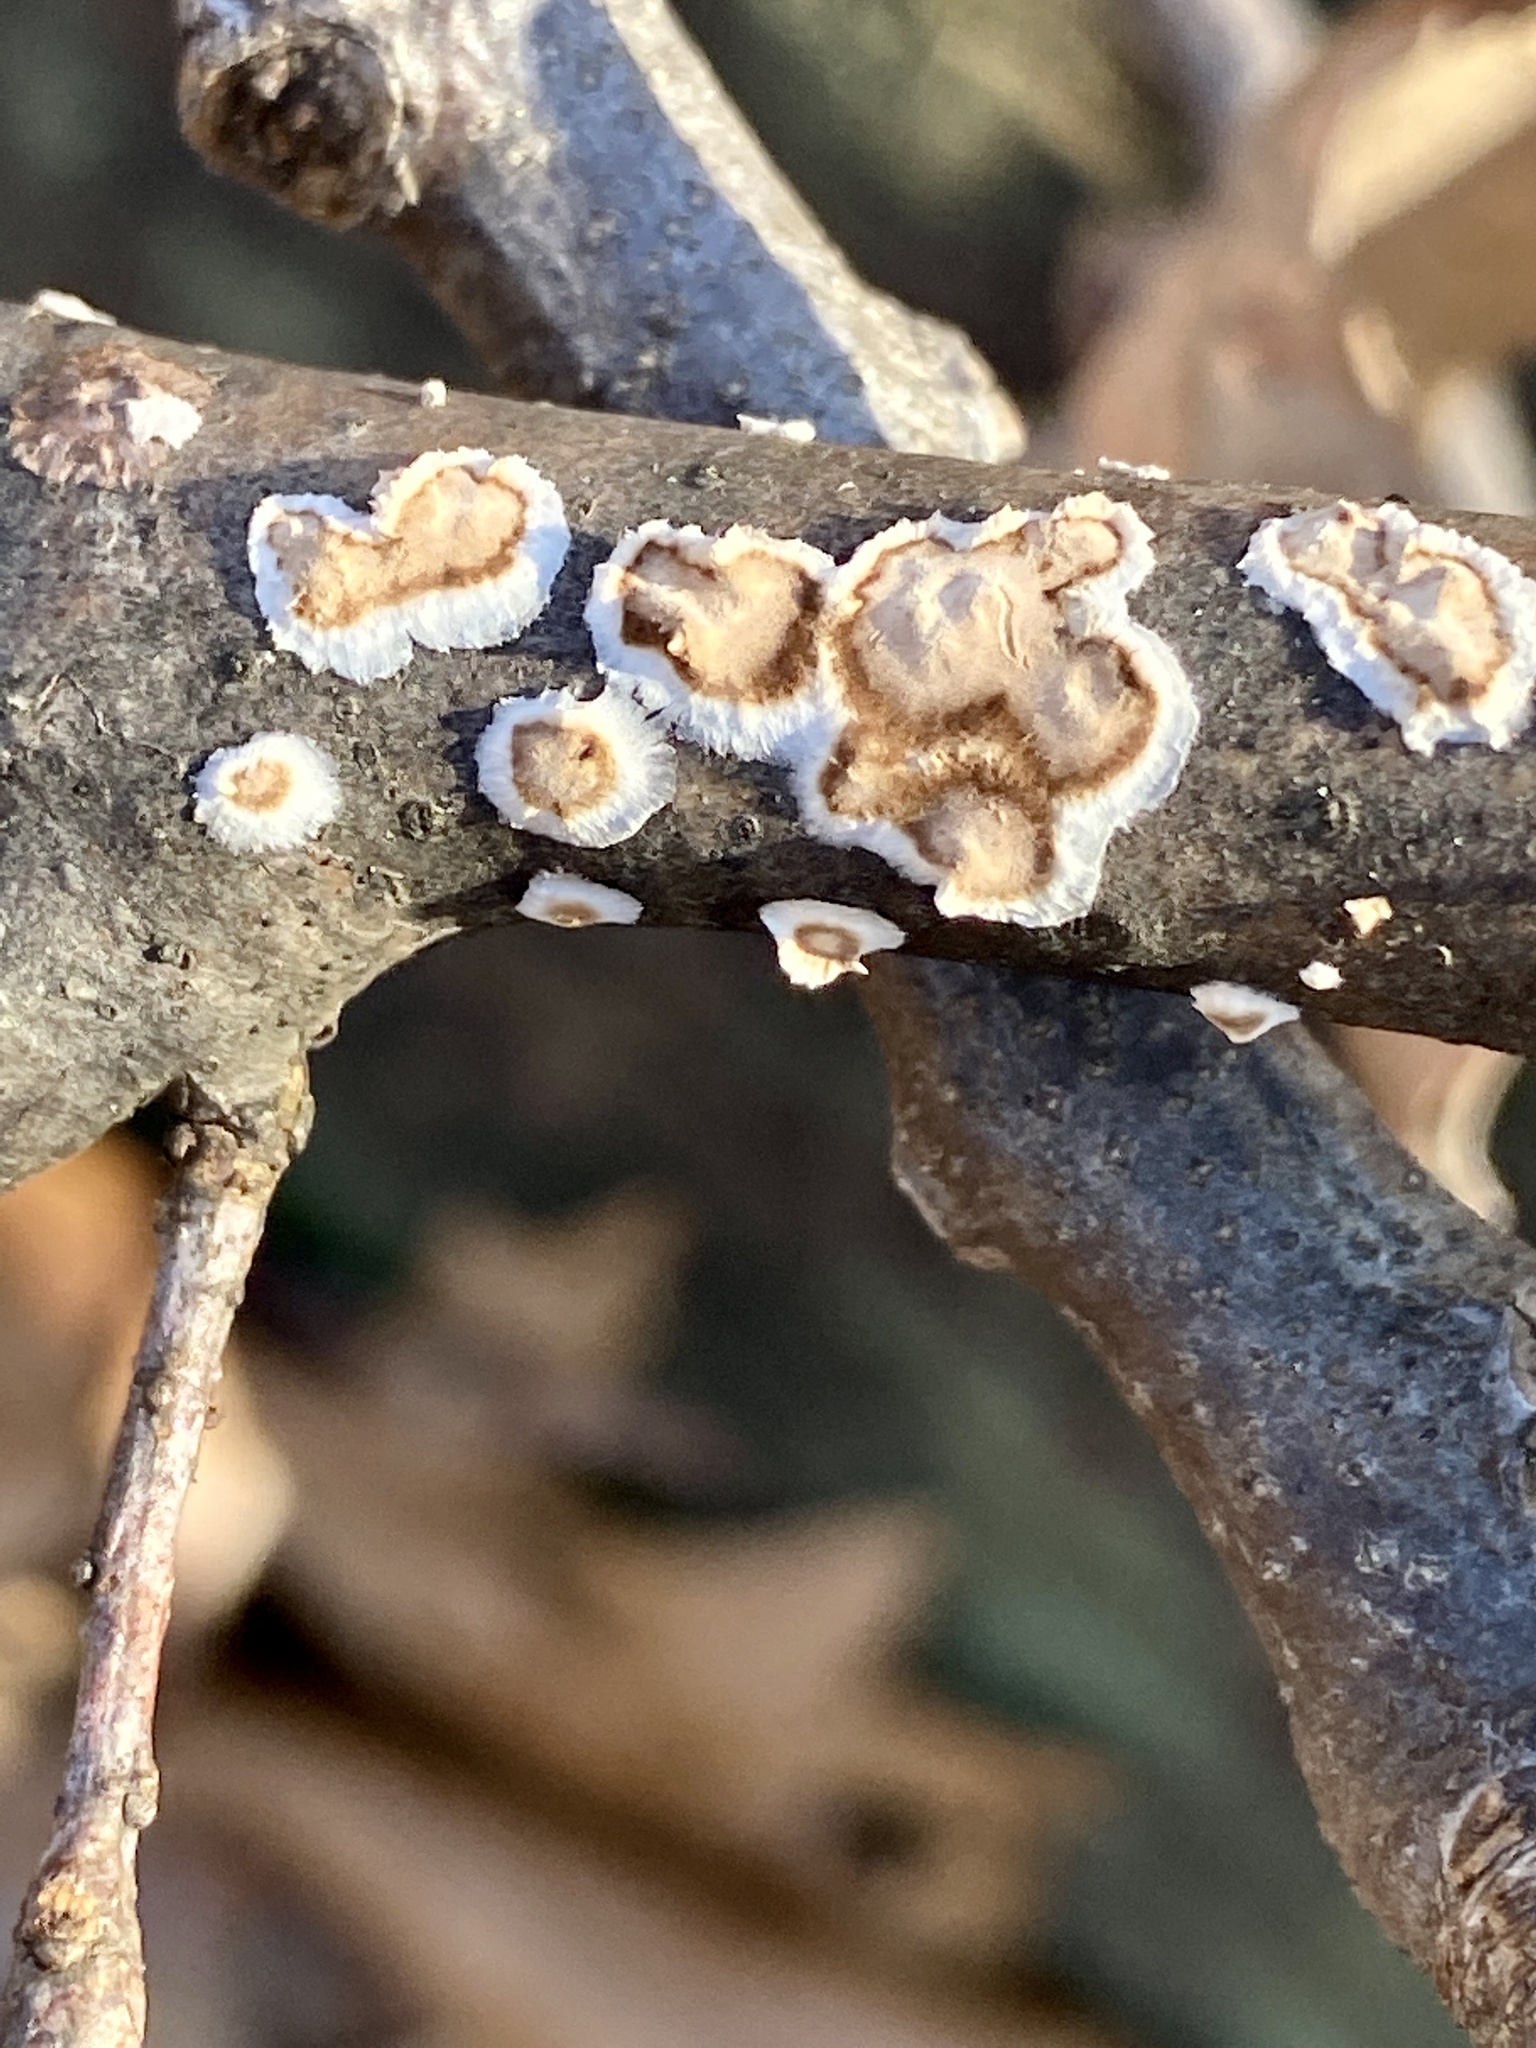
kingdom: Fungi
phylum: Basidiomycota
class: Agaricomycetes
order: Russulales
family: Peniophoraceae
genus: Peniophora
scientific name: Peniophora albobadia
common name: Giraffe spots
